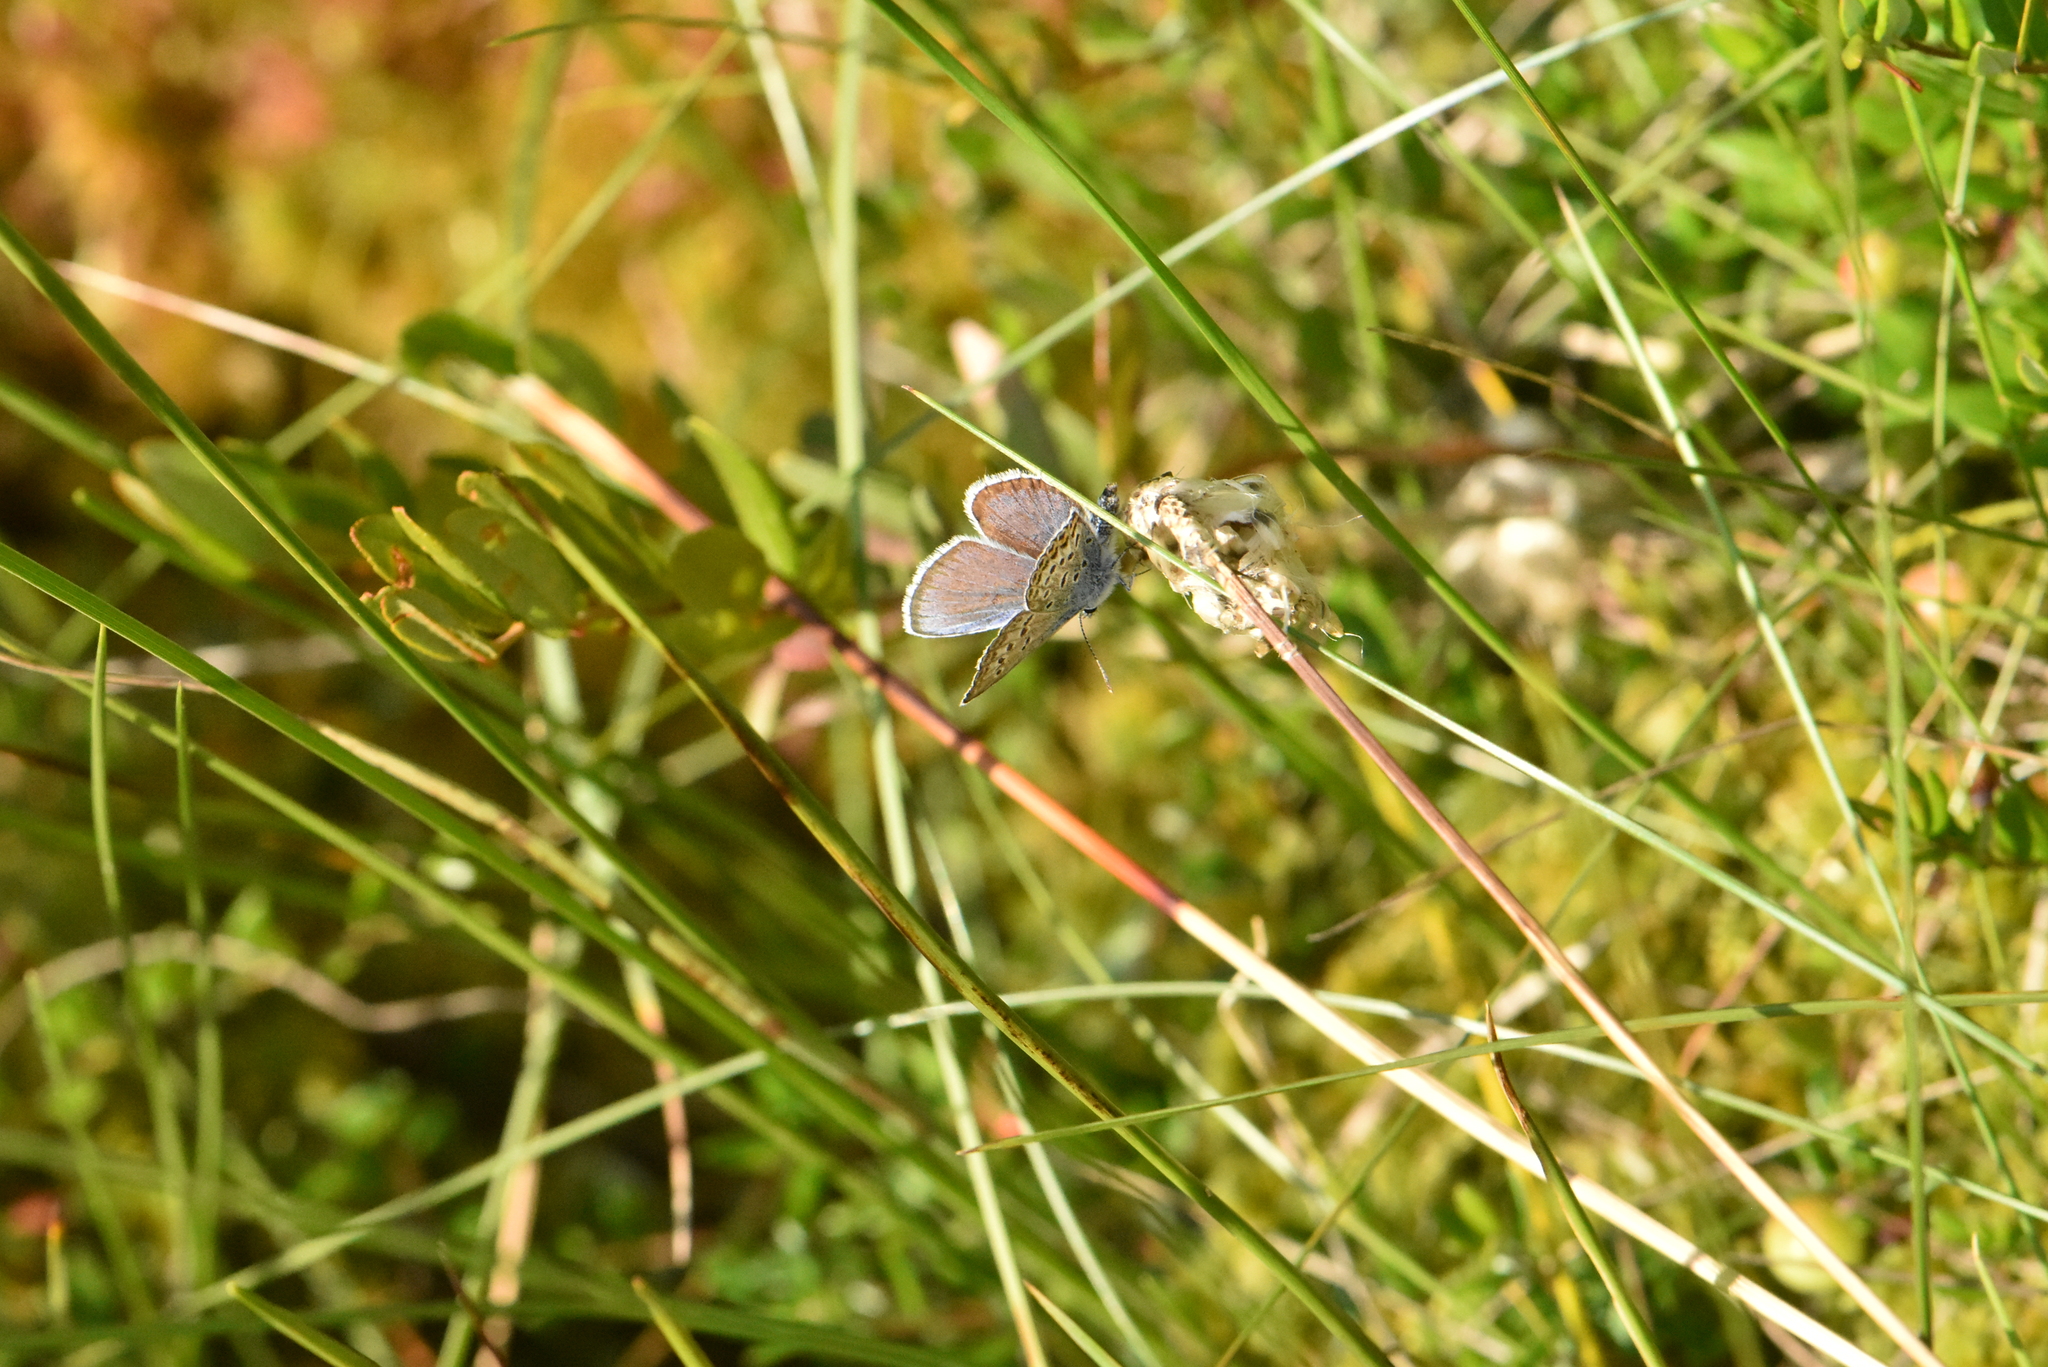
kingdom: Animalia
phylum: Arthropoda
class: Insecta
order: Lepidoptera
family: Lycaenidae
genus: Plebejus
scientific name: Plebejus argus
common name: Silver-studded blue
